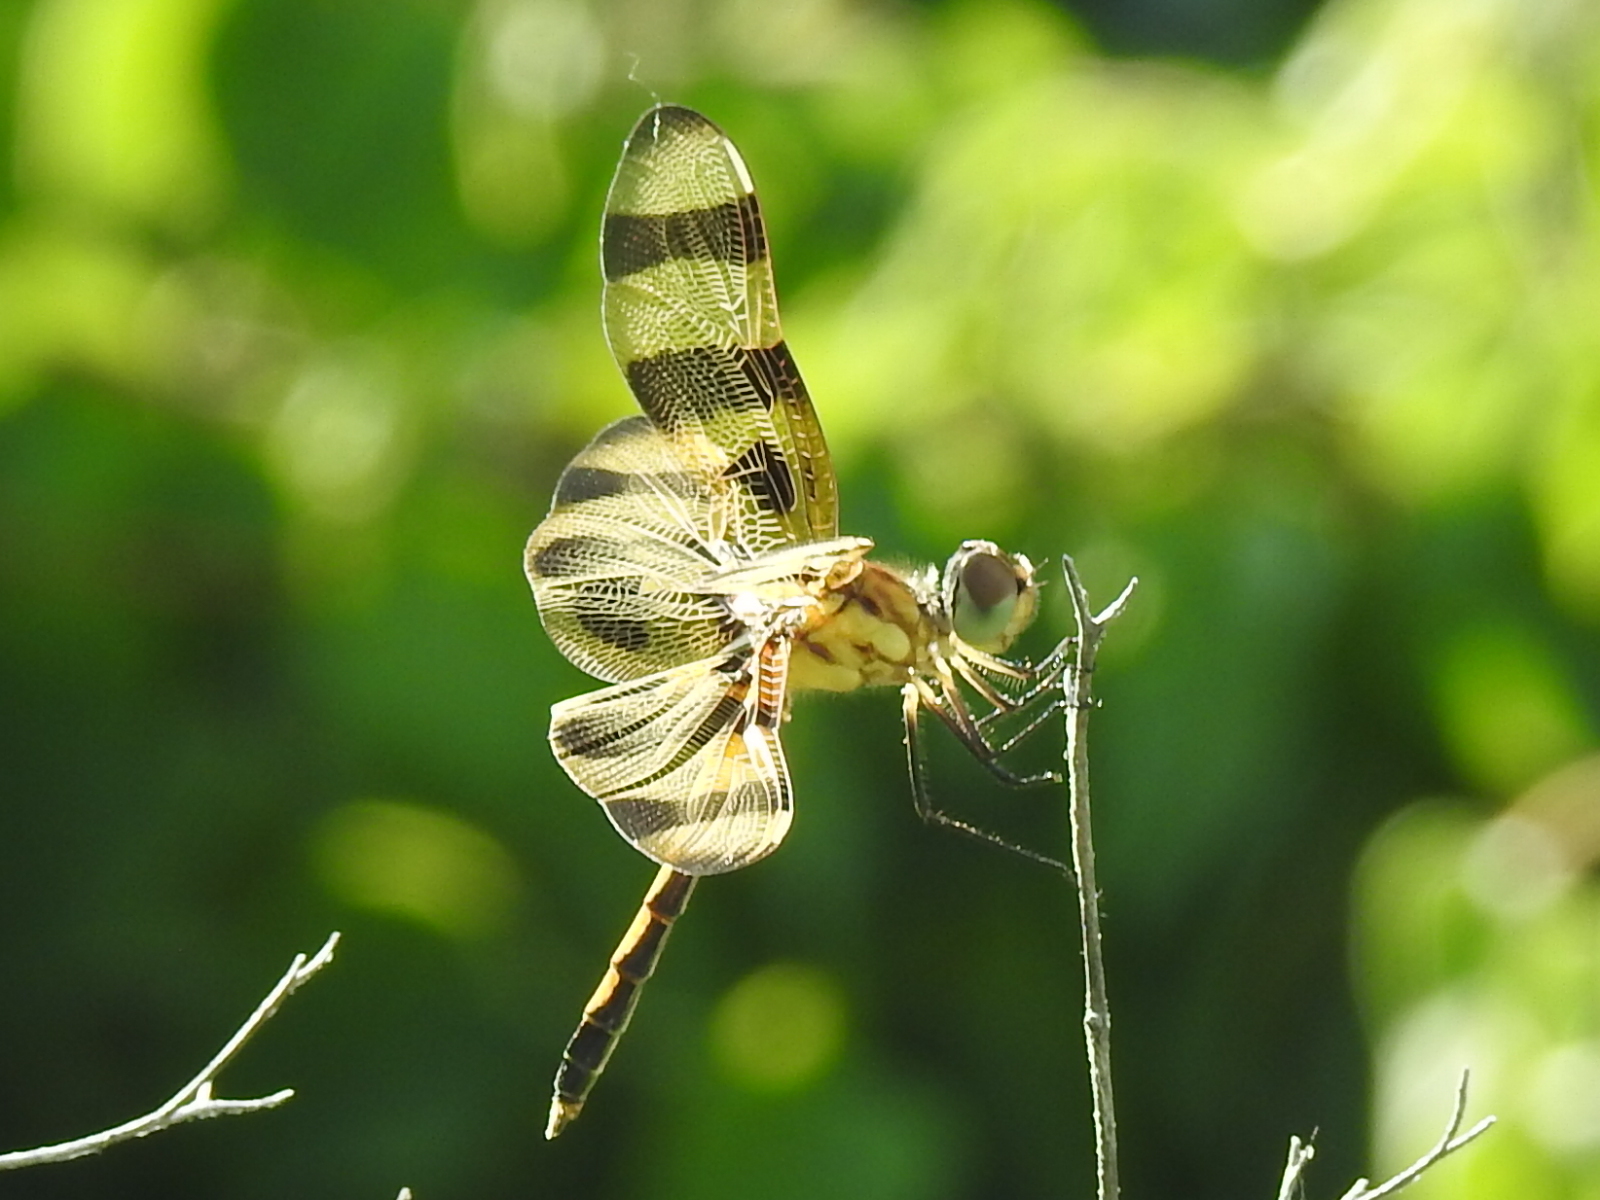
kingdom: Animalia
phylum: Arthropoda
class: Insecta
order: Odonata
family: Libellulidae
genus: Celithemis
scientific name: Celithemis eponina
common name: Halloween pennant
